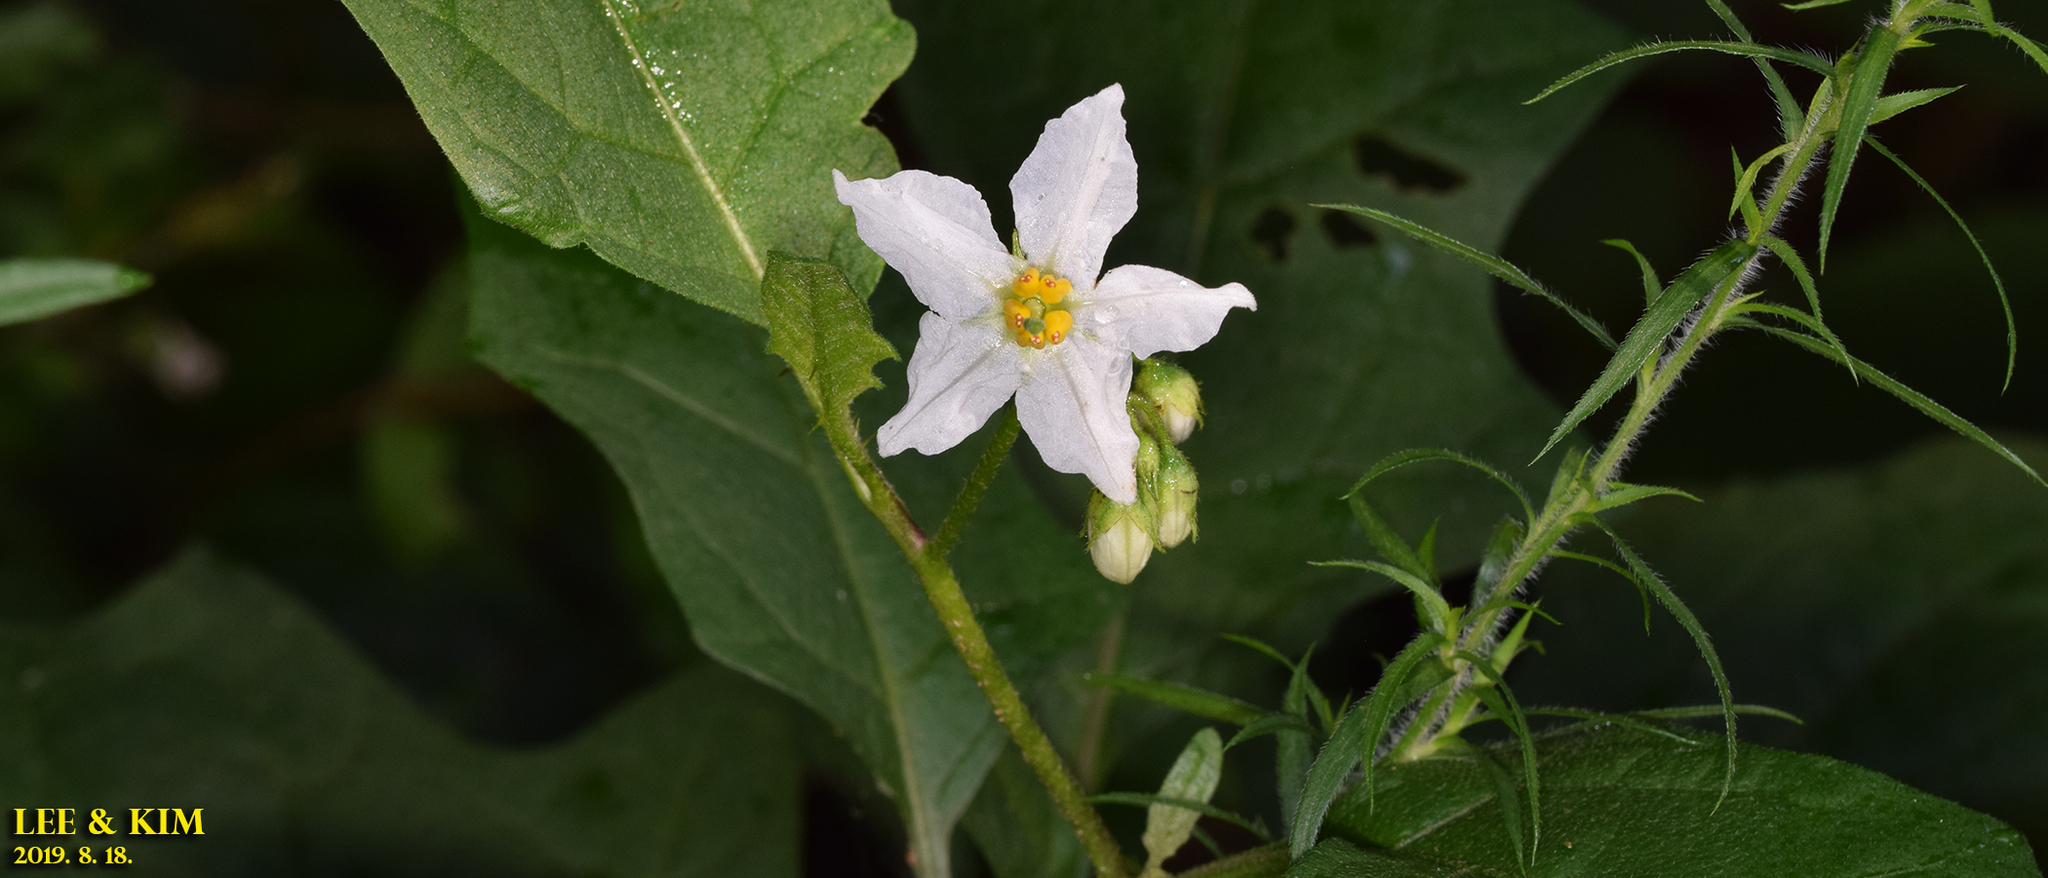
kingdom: Plantae
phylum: Tracheophyta
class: Magnoliopsida
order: Solanales
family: Solanaceae
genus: Solanum
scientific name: Solanum carolinense
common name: Horse-nettle
